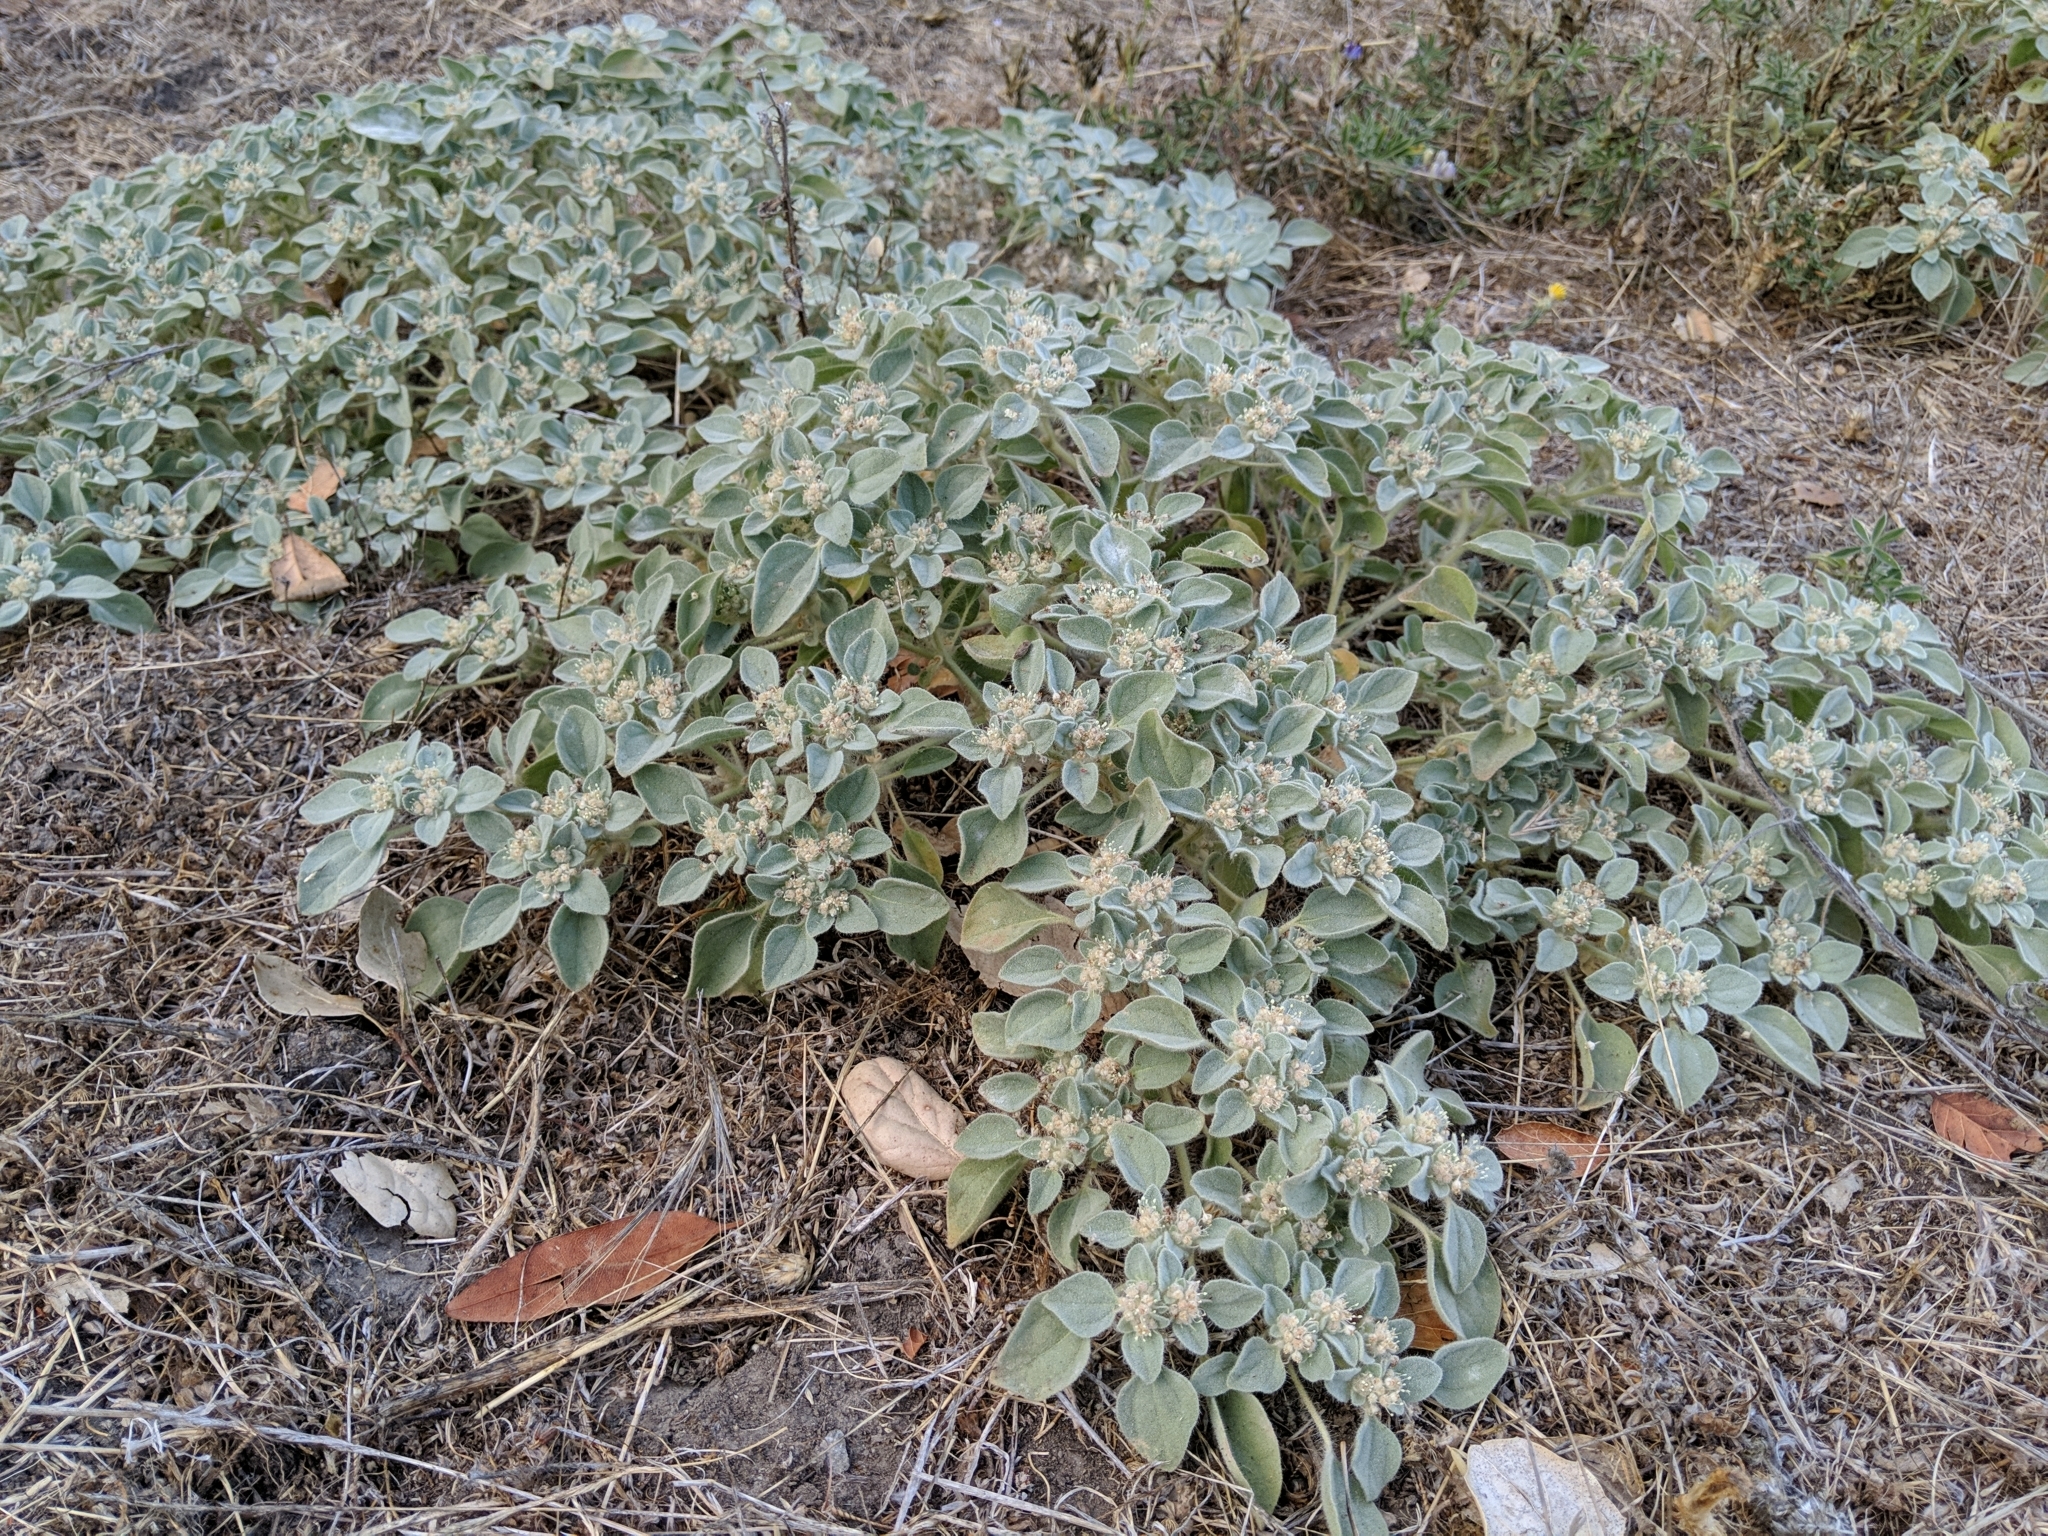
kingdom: Plantae
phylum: Tracheophyta
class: Magnoliopsida
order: Malpighiales
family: Euphorbiaceae
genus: Croton
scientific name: Croton setiger
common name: Dove weed
